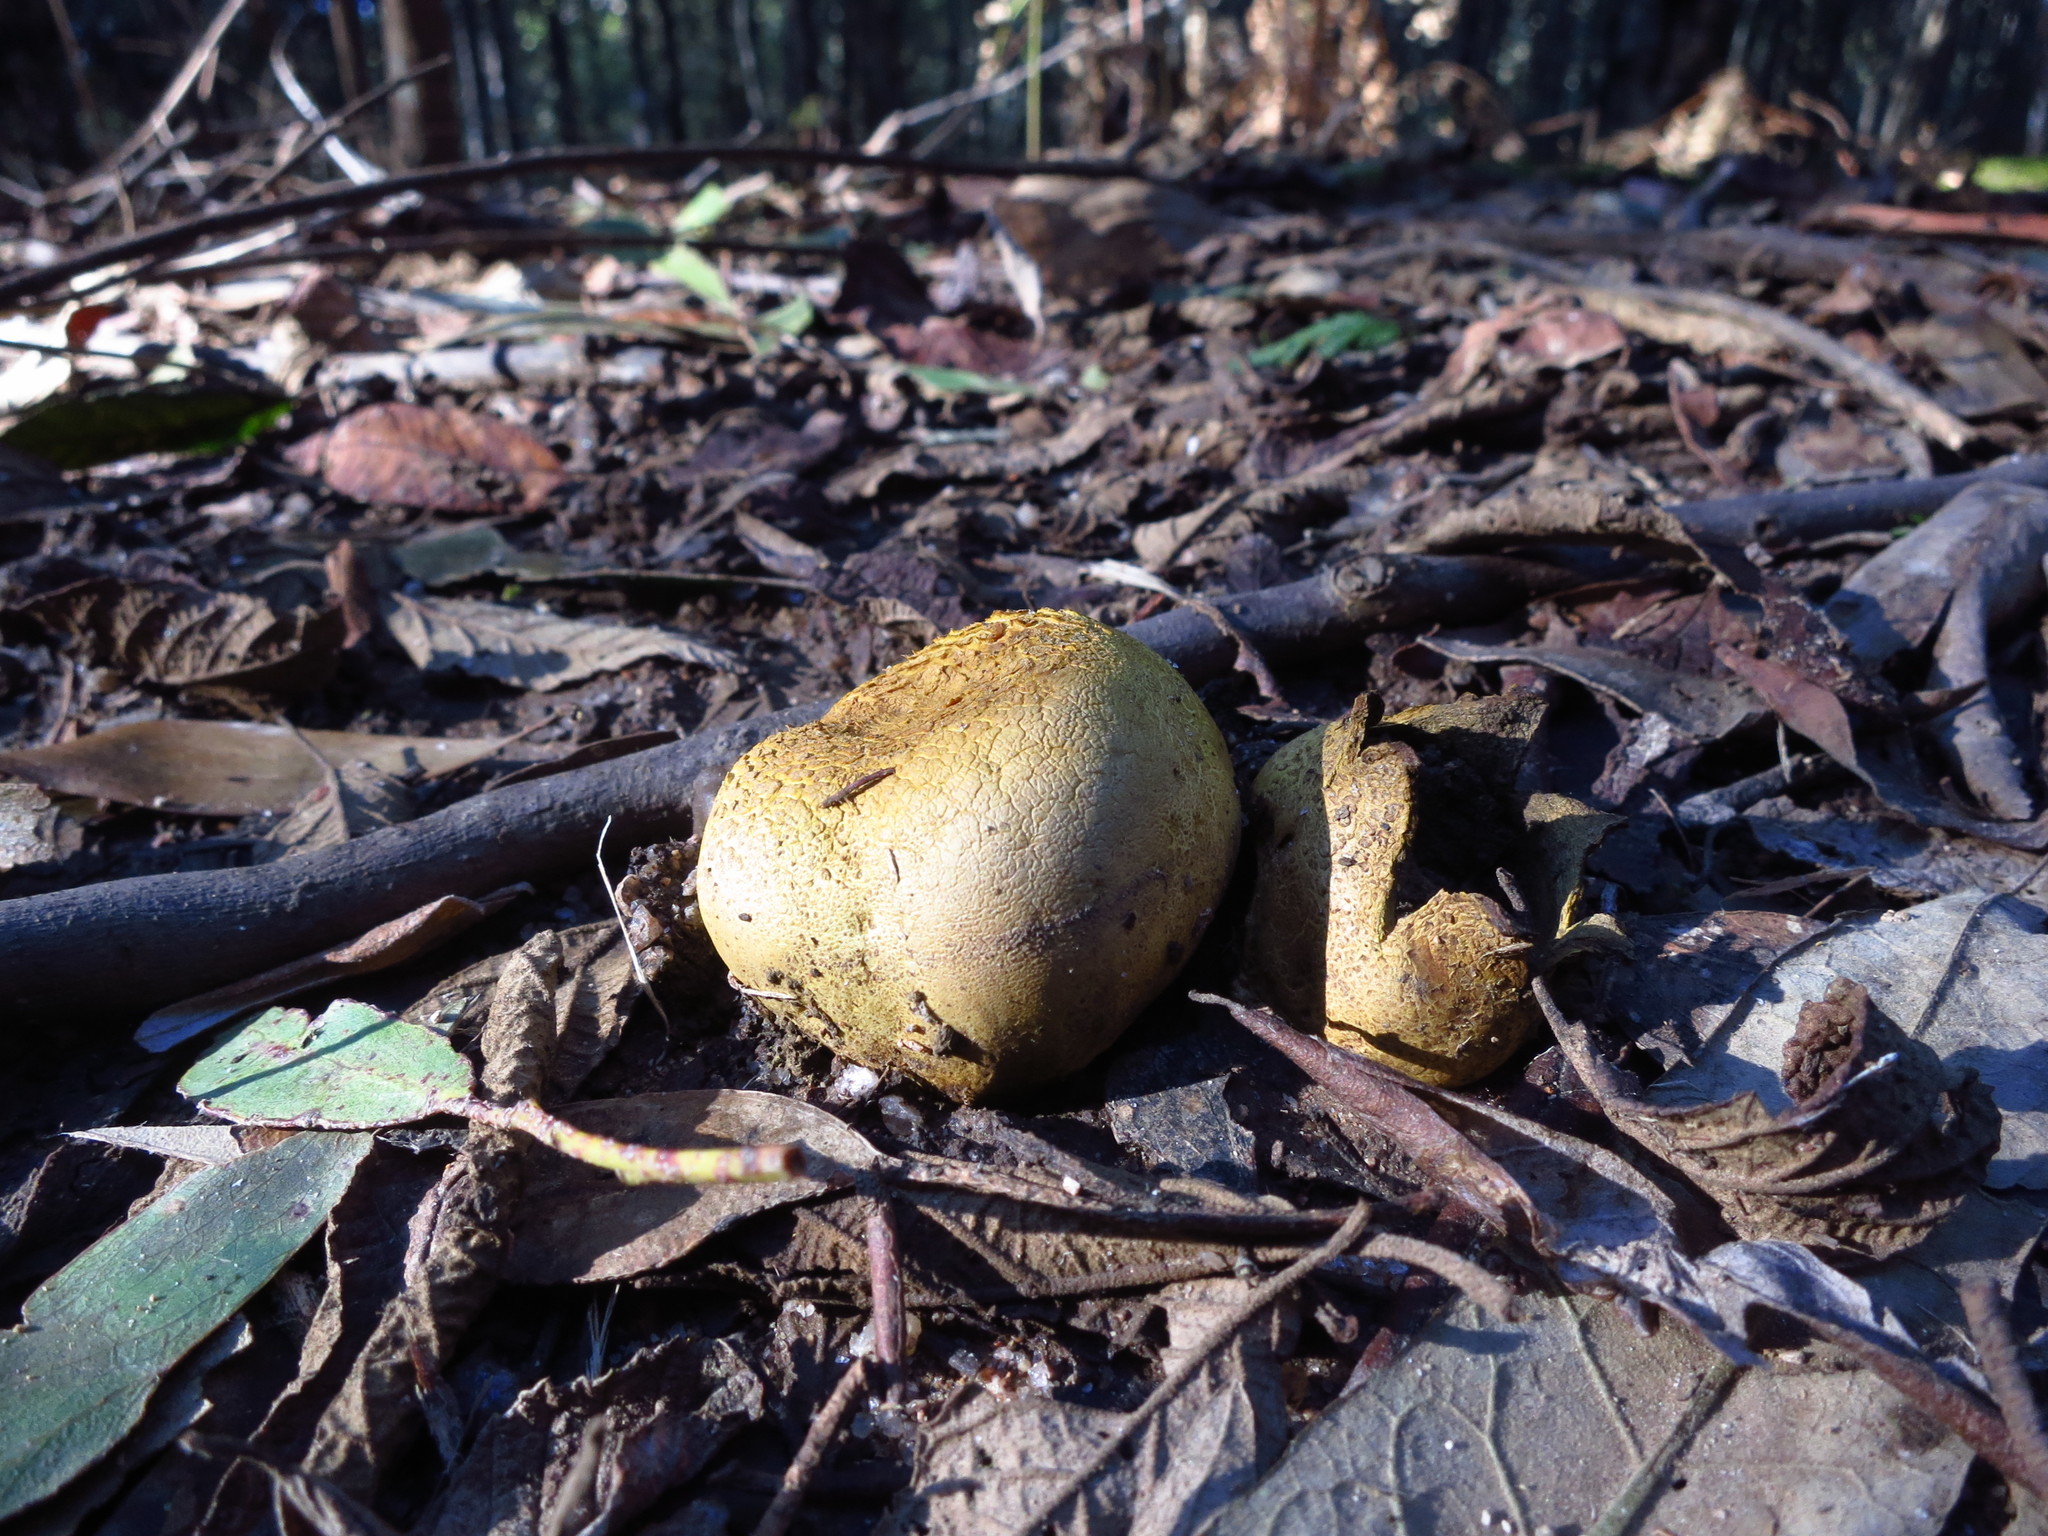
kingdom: Fungi
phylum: Basidiomycota
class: Agaricomycetes
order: Boletales
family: Sclerodermataceae
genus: Scleroderma
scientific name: Scleroderma cepa
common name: Onion earthball
